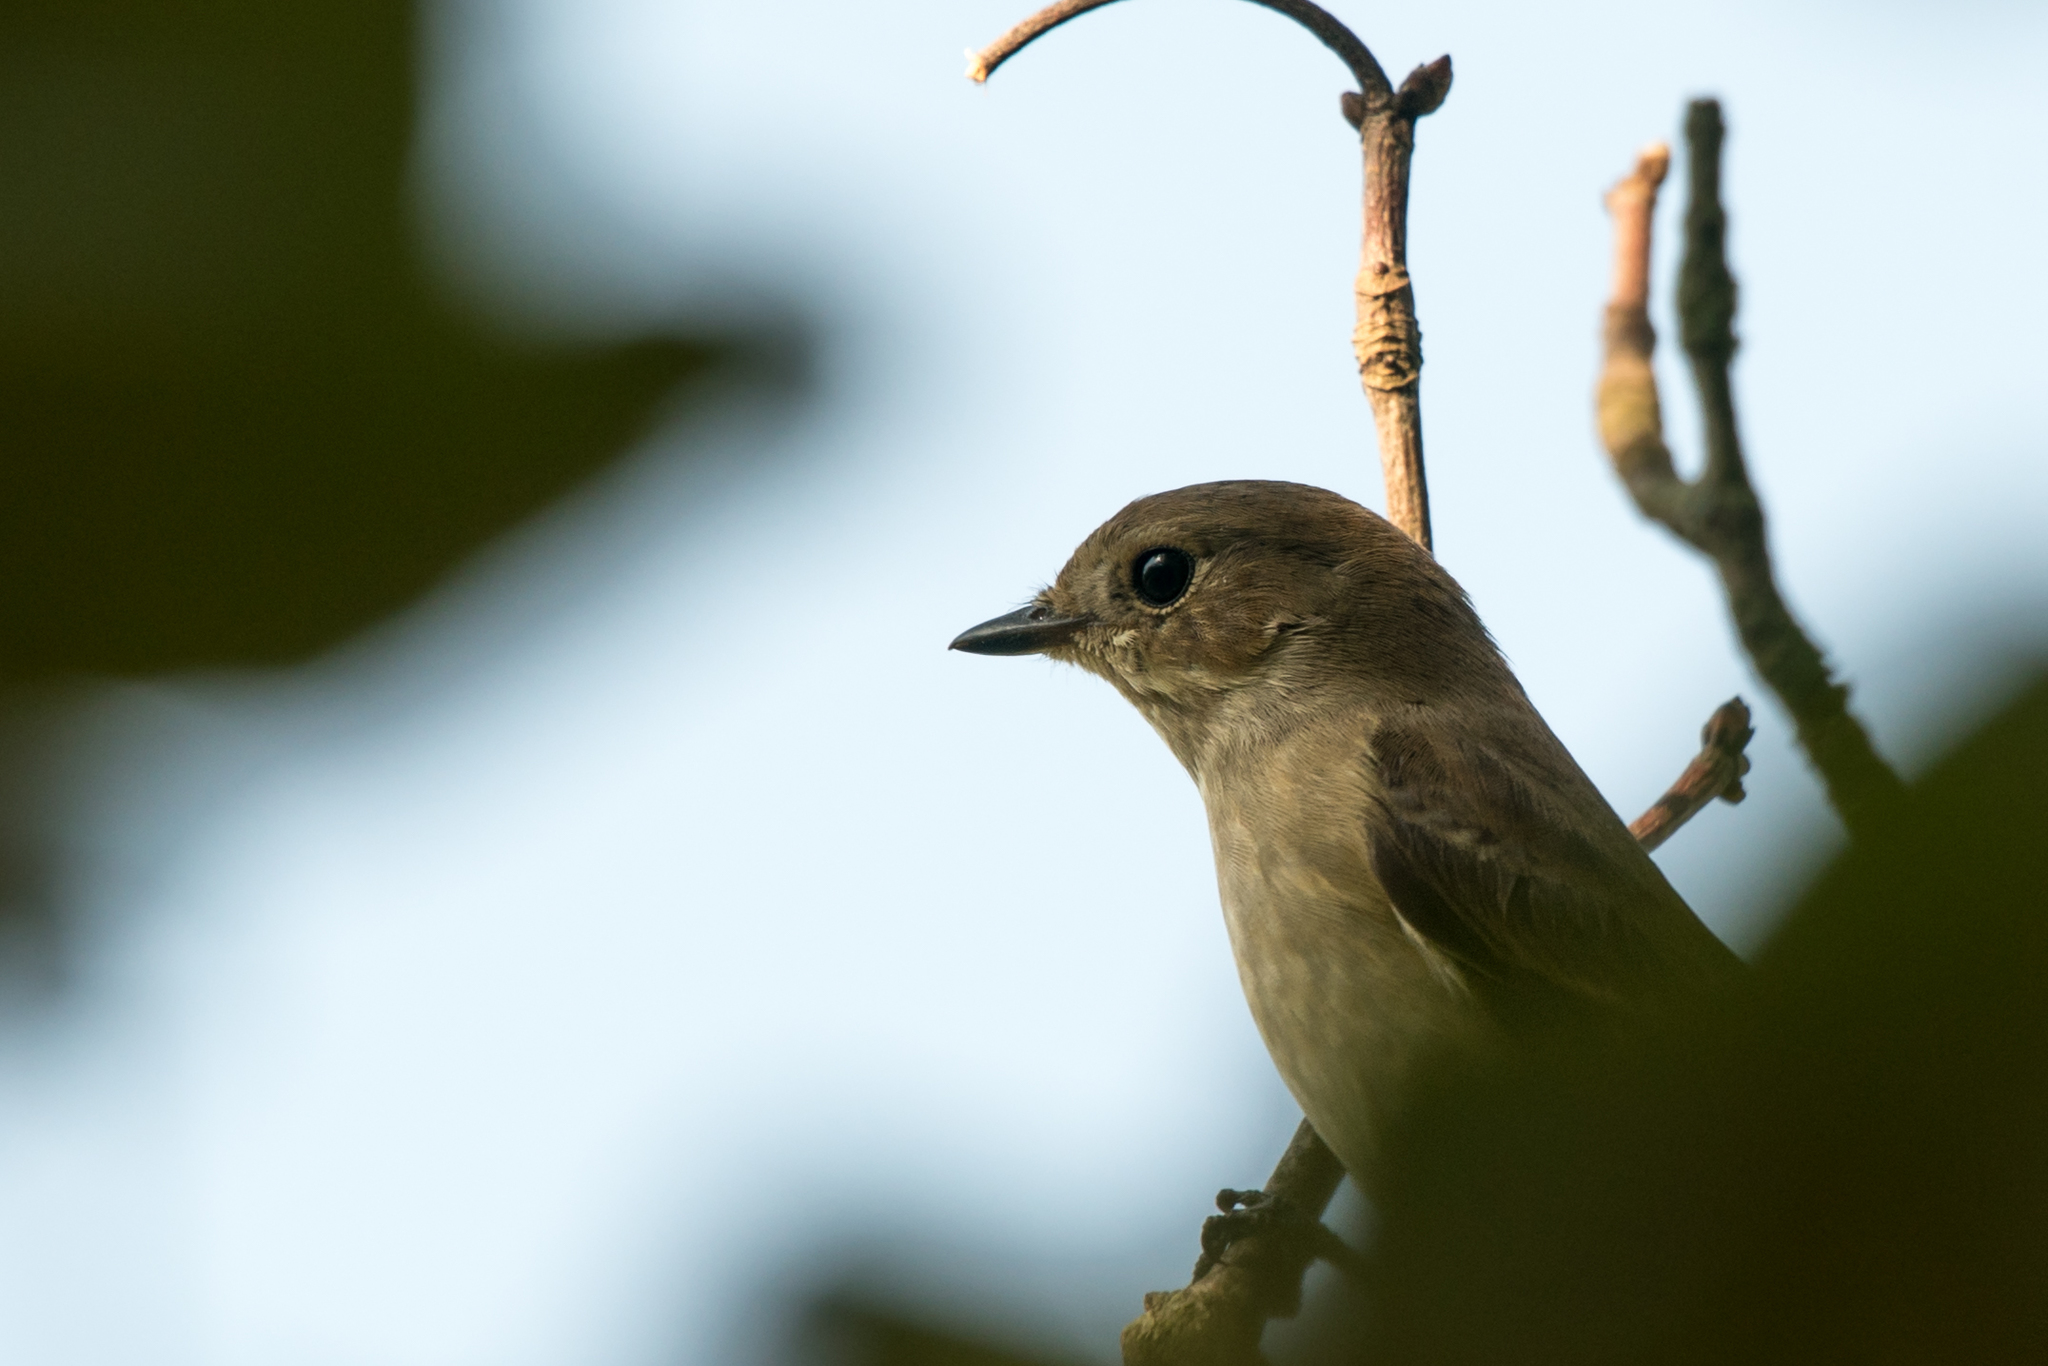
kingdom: Animalia
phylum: Chordata
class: Aves
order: Passeriformes
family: Muscicapidae
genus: Ficedula
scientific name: Ficedula hypoleuca
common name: European pied flycatcher
